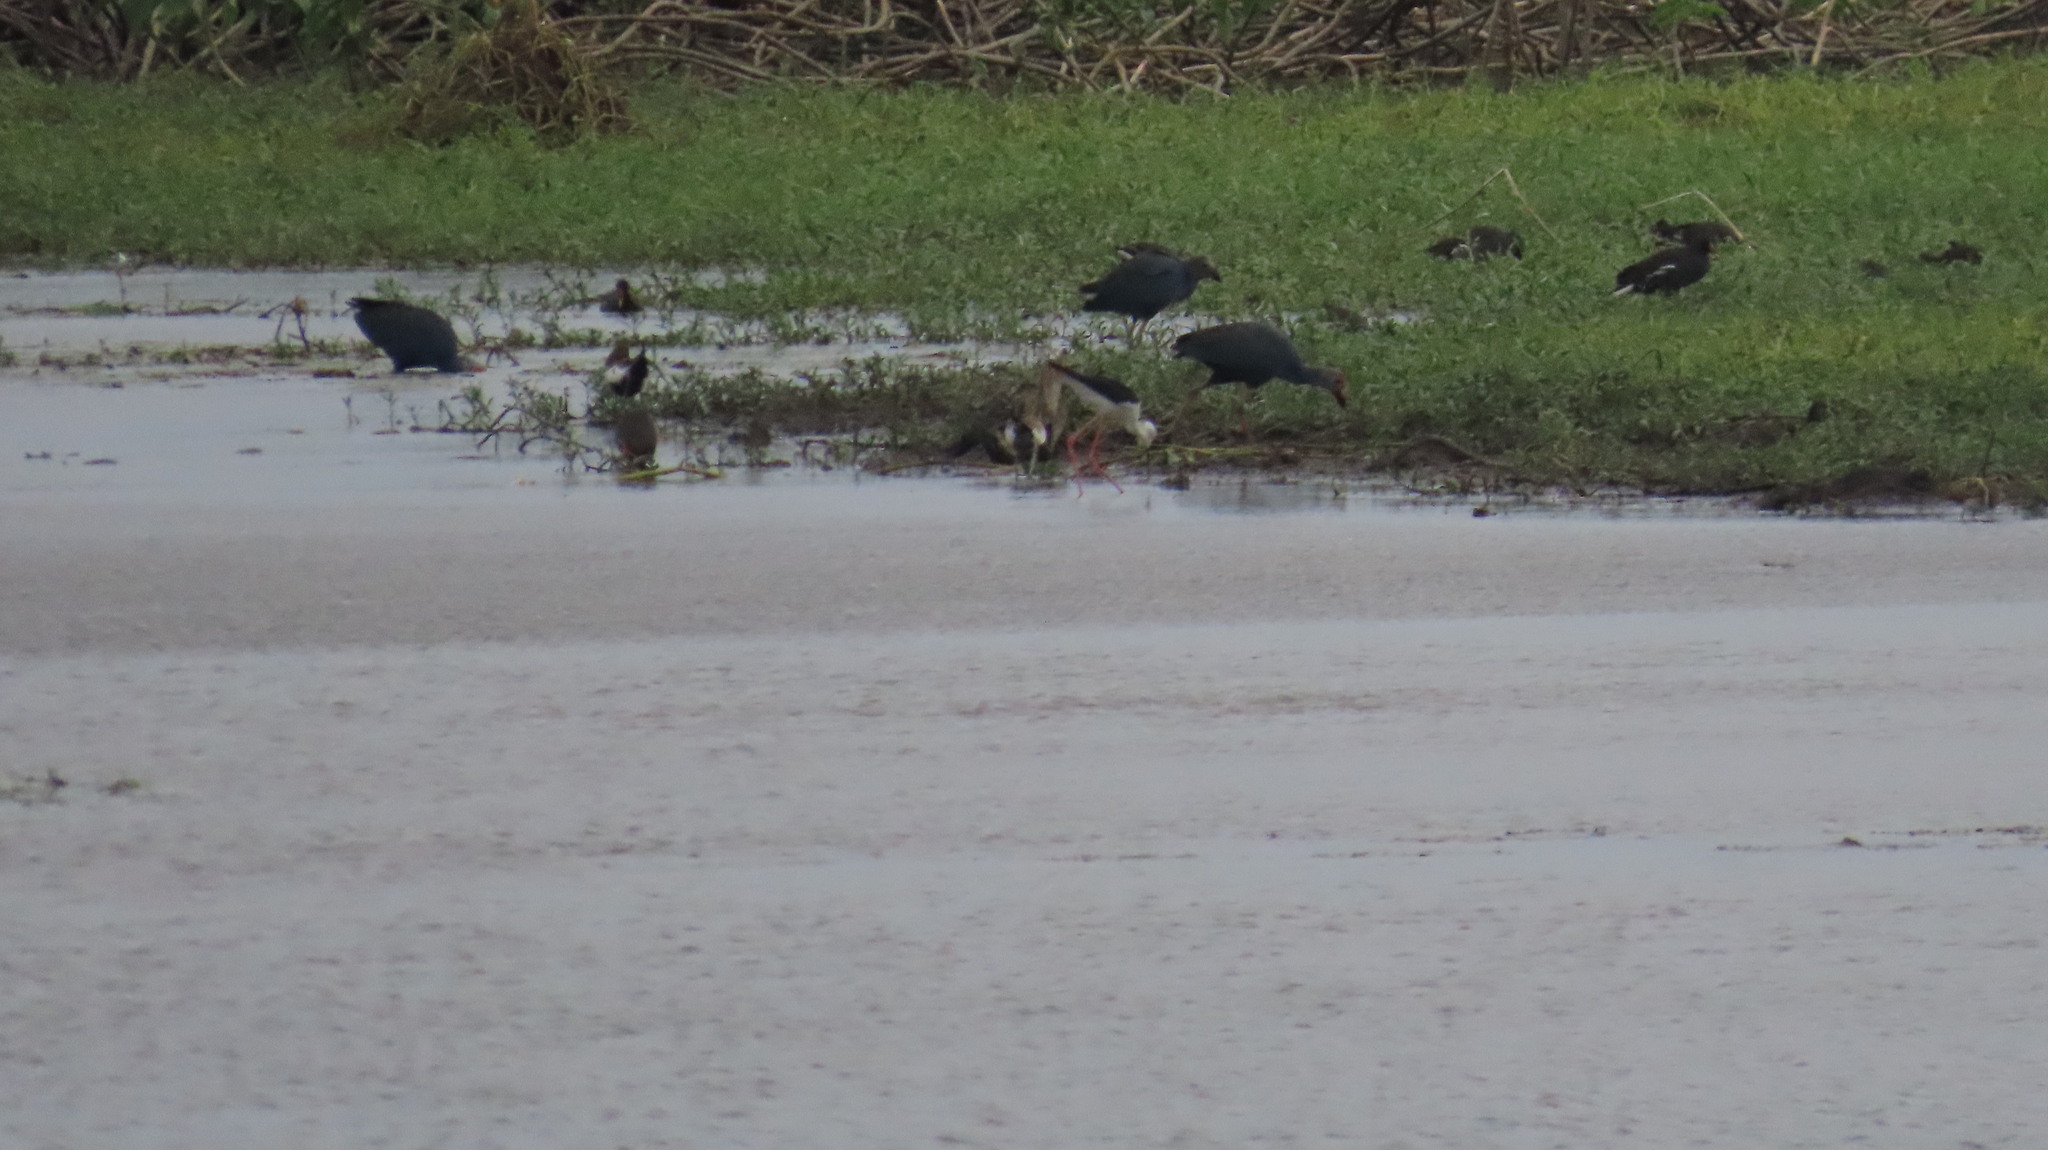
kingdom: Animalia
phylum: Chordata
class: Aves
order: Charadriiformes
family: Recurvirostridae
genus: Himantopus
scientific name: Himantopus himantopus
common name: Black-winged stilt
